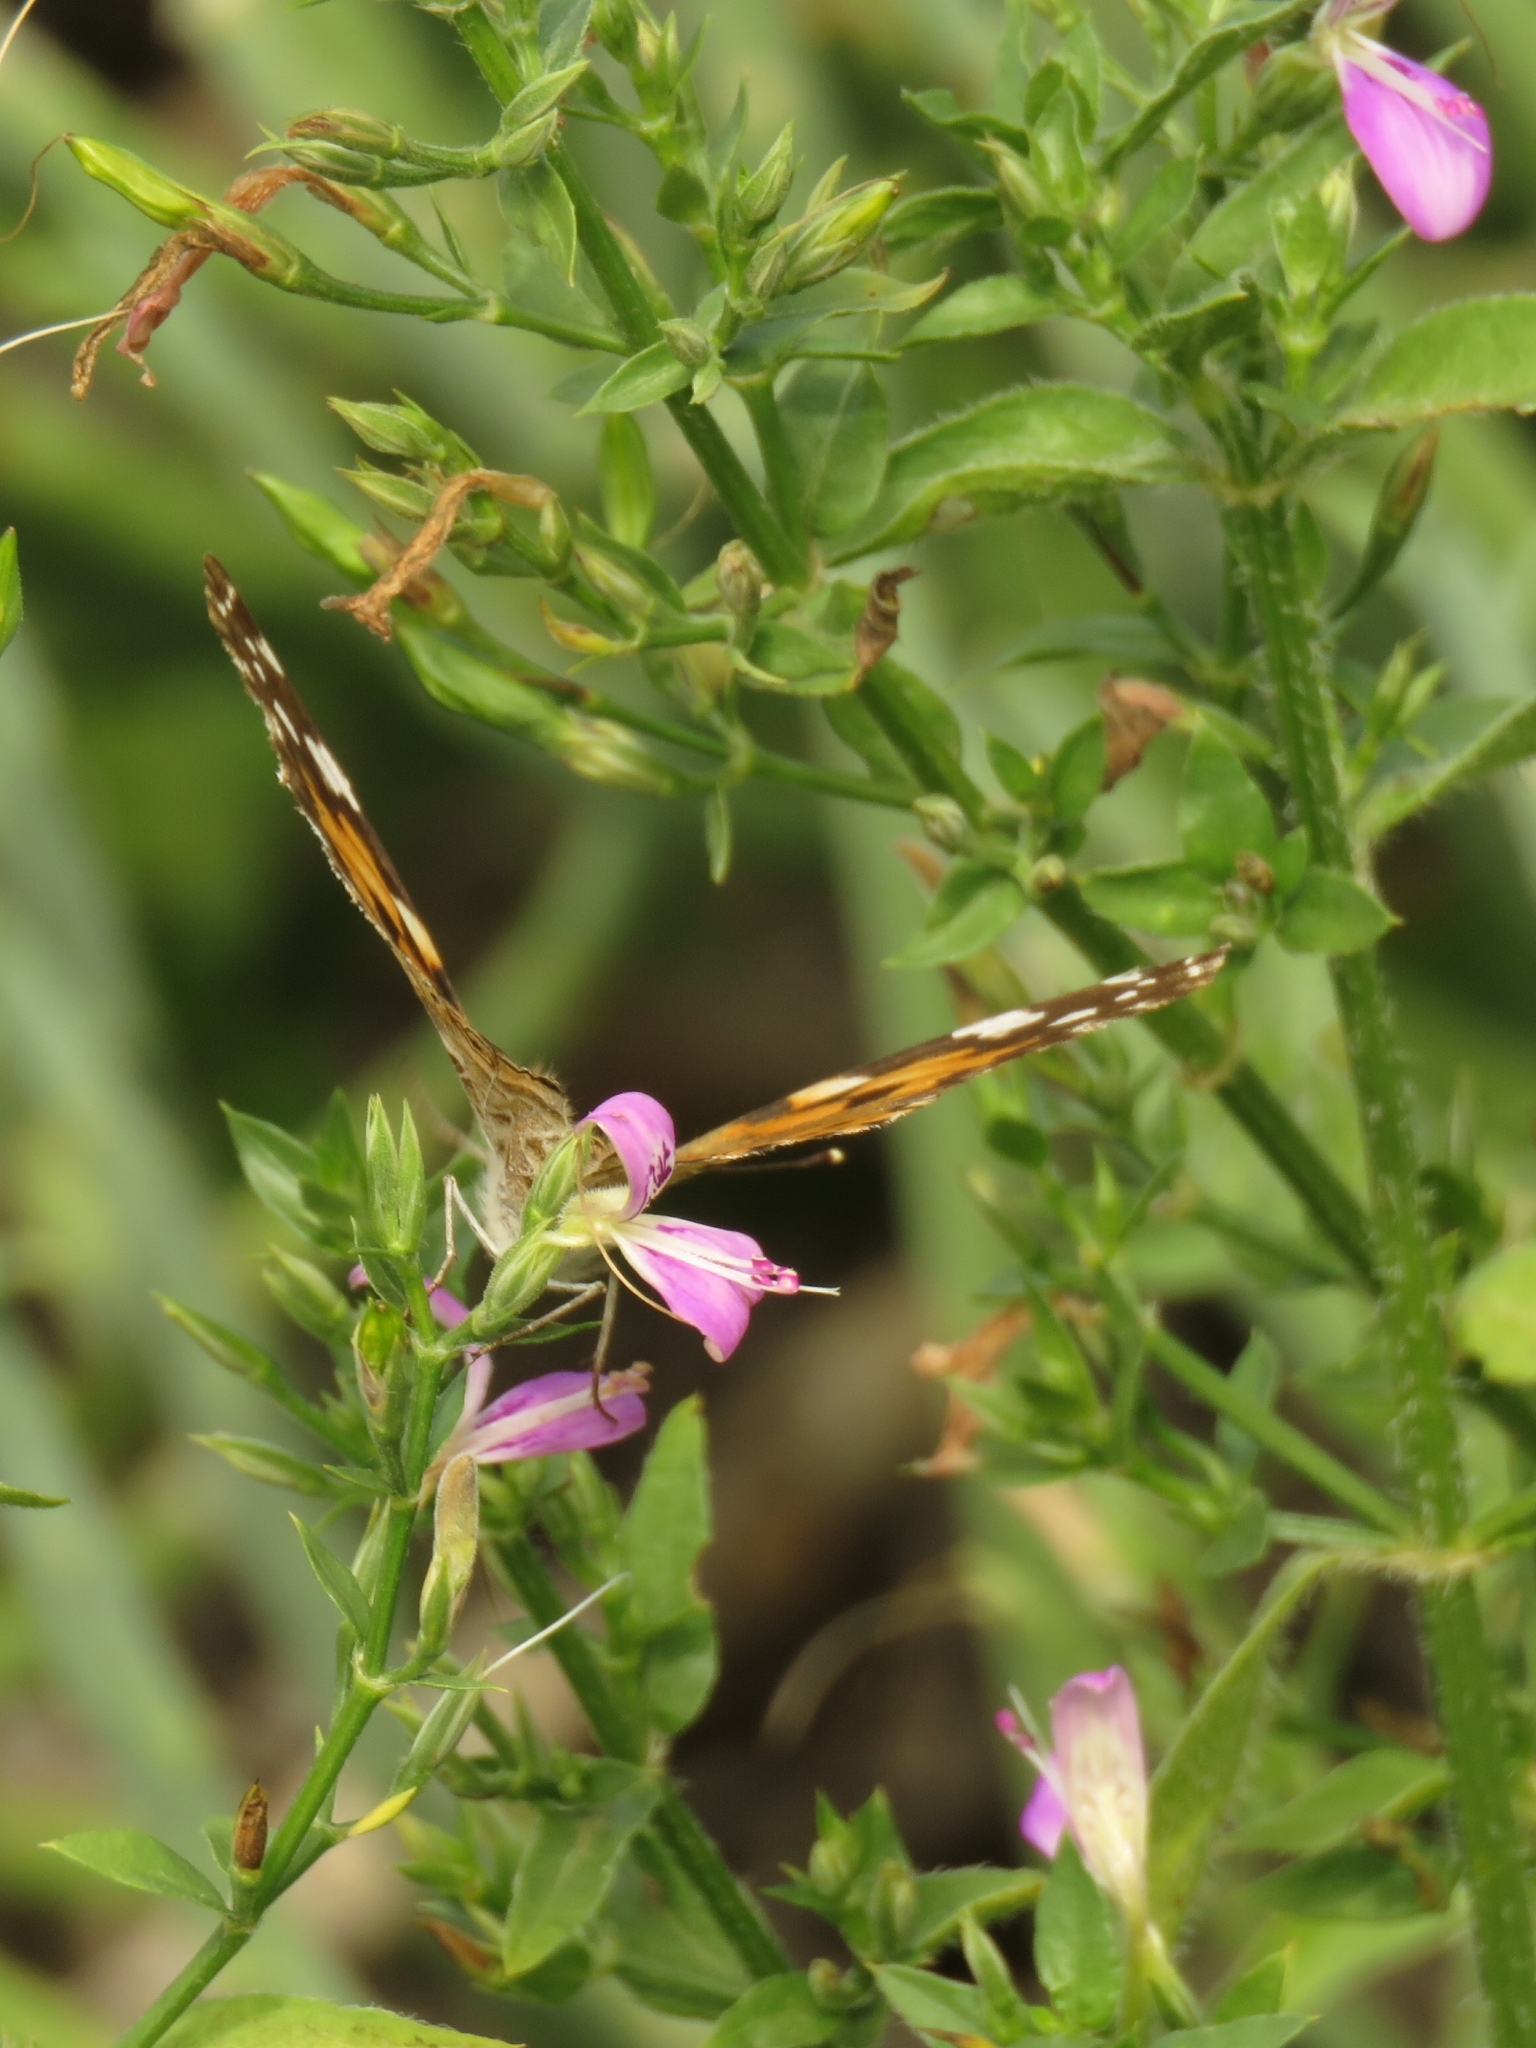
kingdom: Plantae
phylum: Tracheophyta
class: Magnoliopsida
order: Lamiales
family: Acanthaceae
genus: Dicliptera
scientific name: Dicliptera cernua
